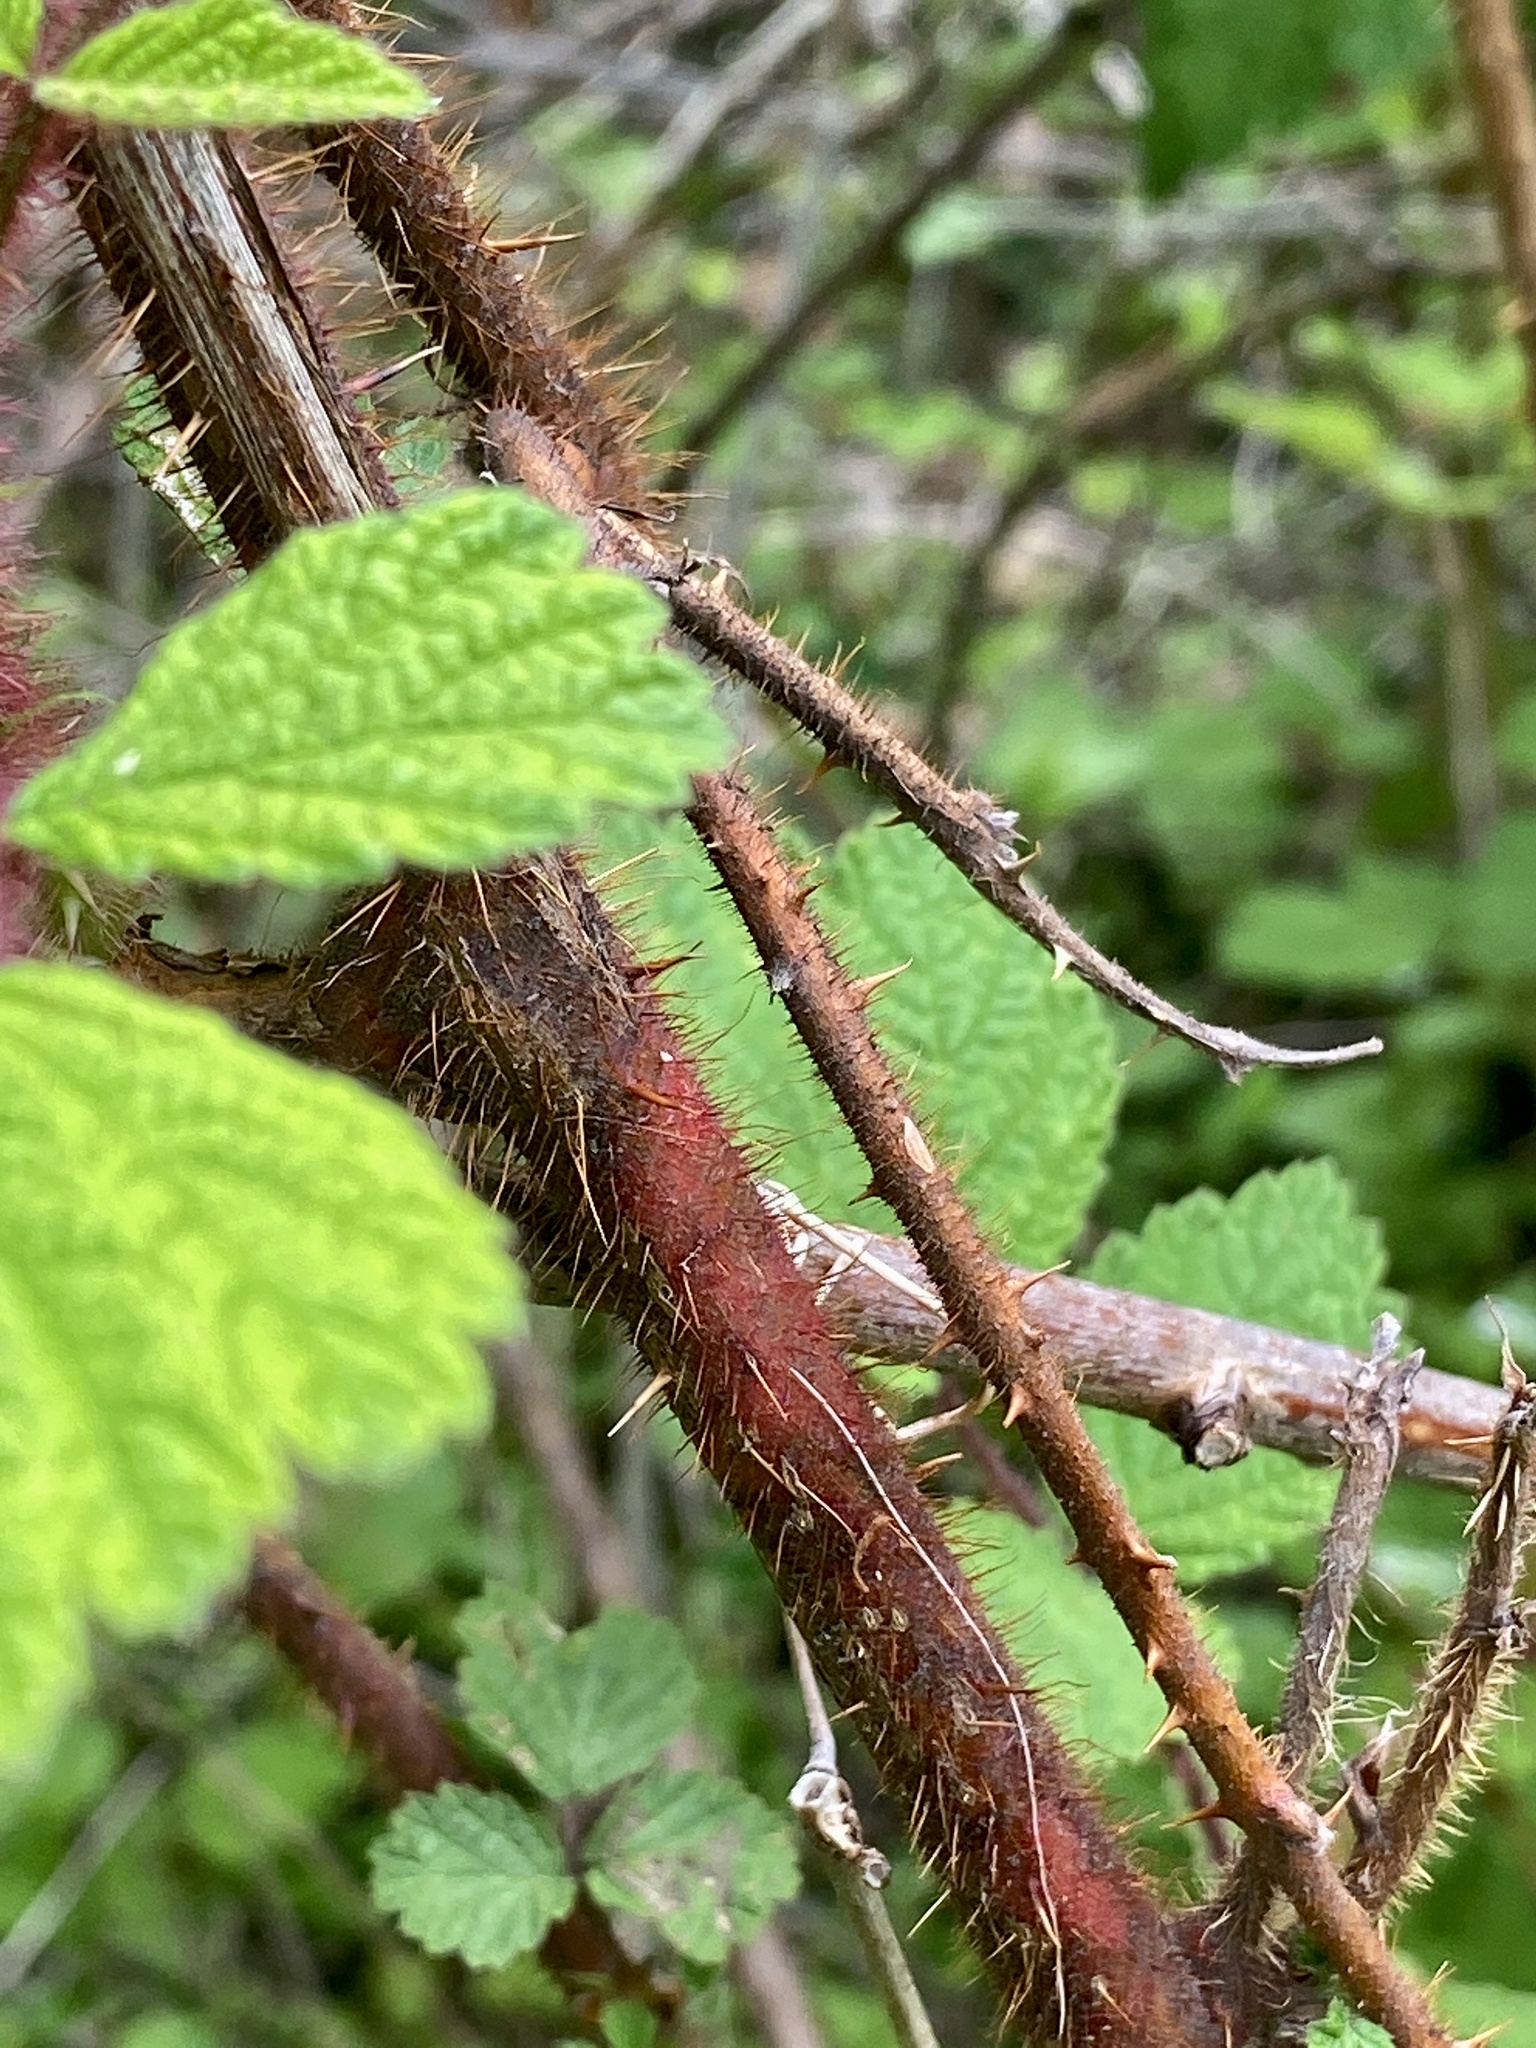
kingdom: Plantae
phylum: Tracheophyta
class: Magnoliopsida
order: Rosales
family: Rosaceae
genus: Rubus
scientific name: Rubus phoenicolasius
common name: Japanese wineberry
